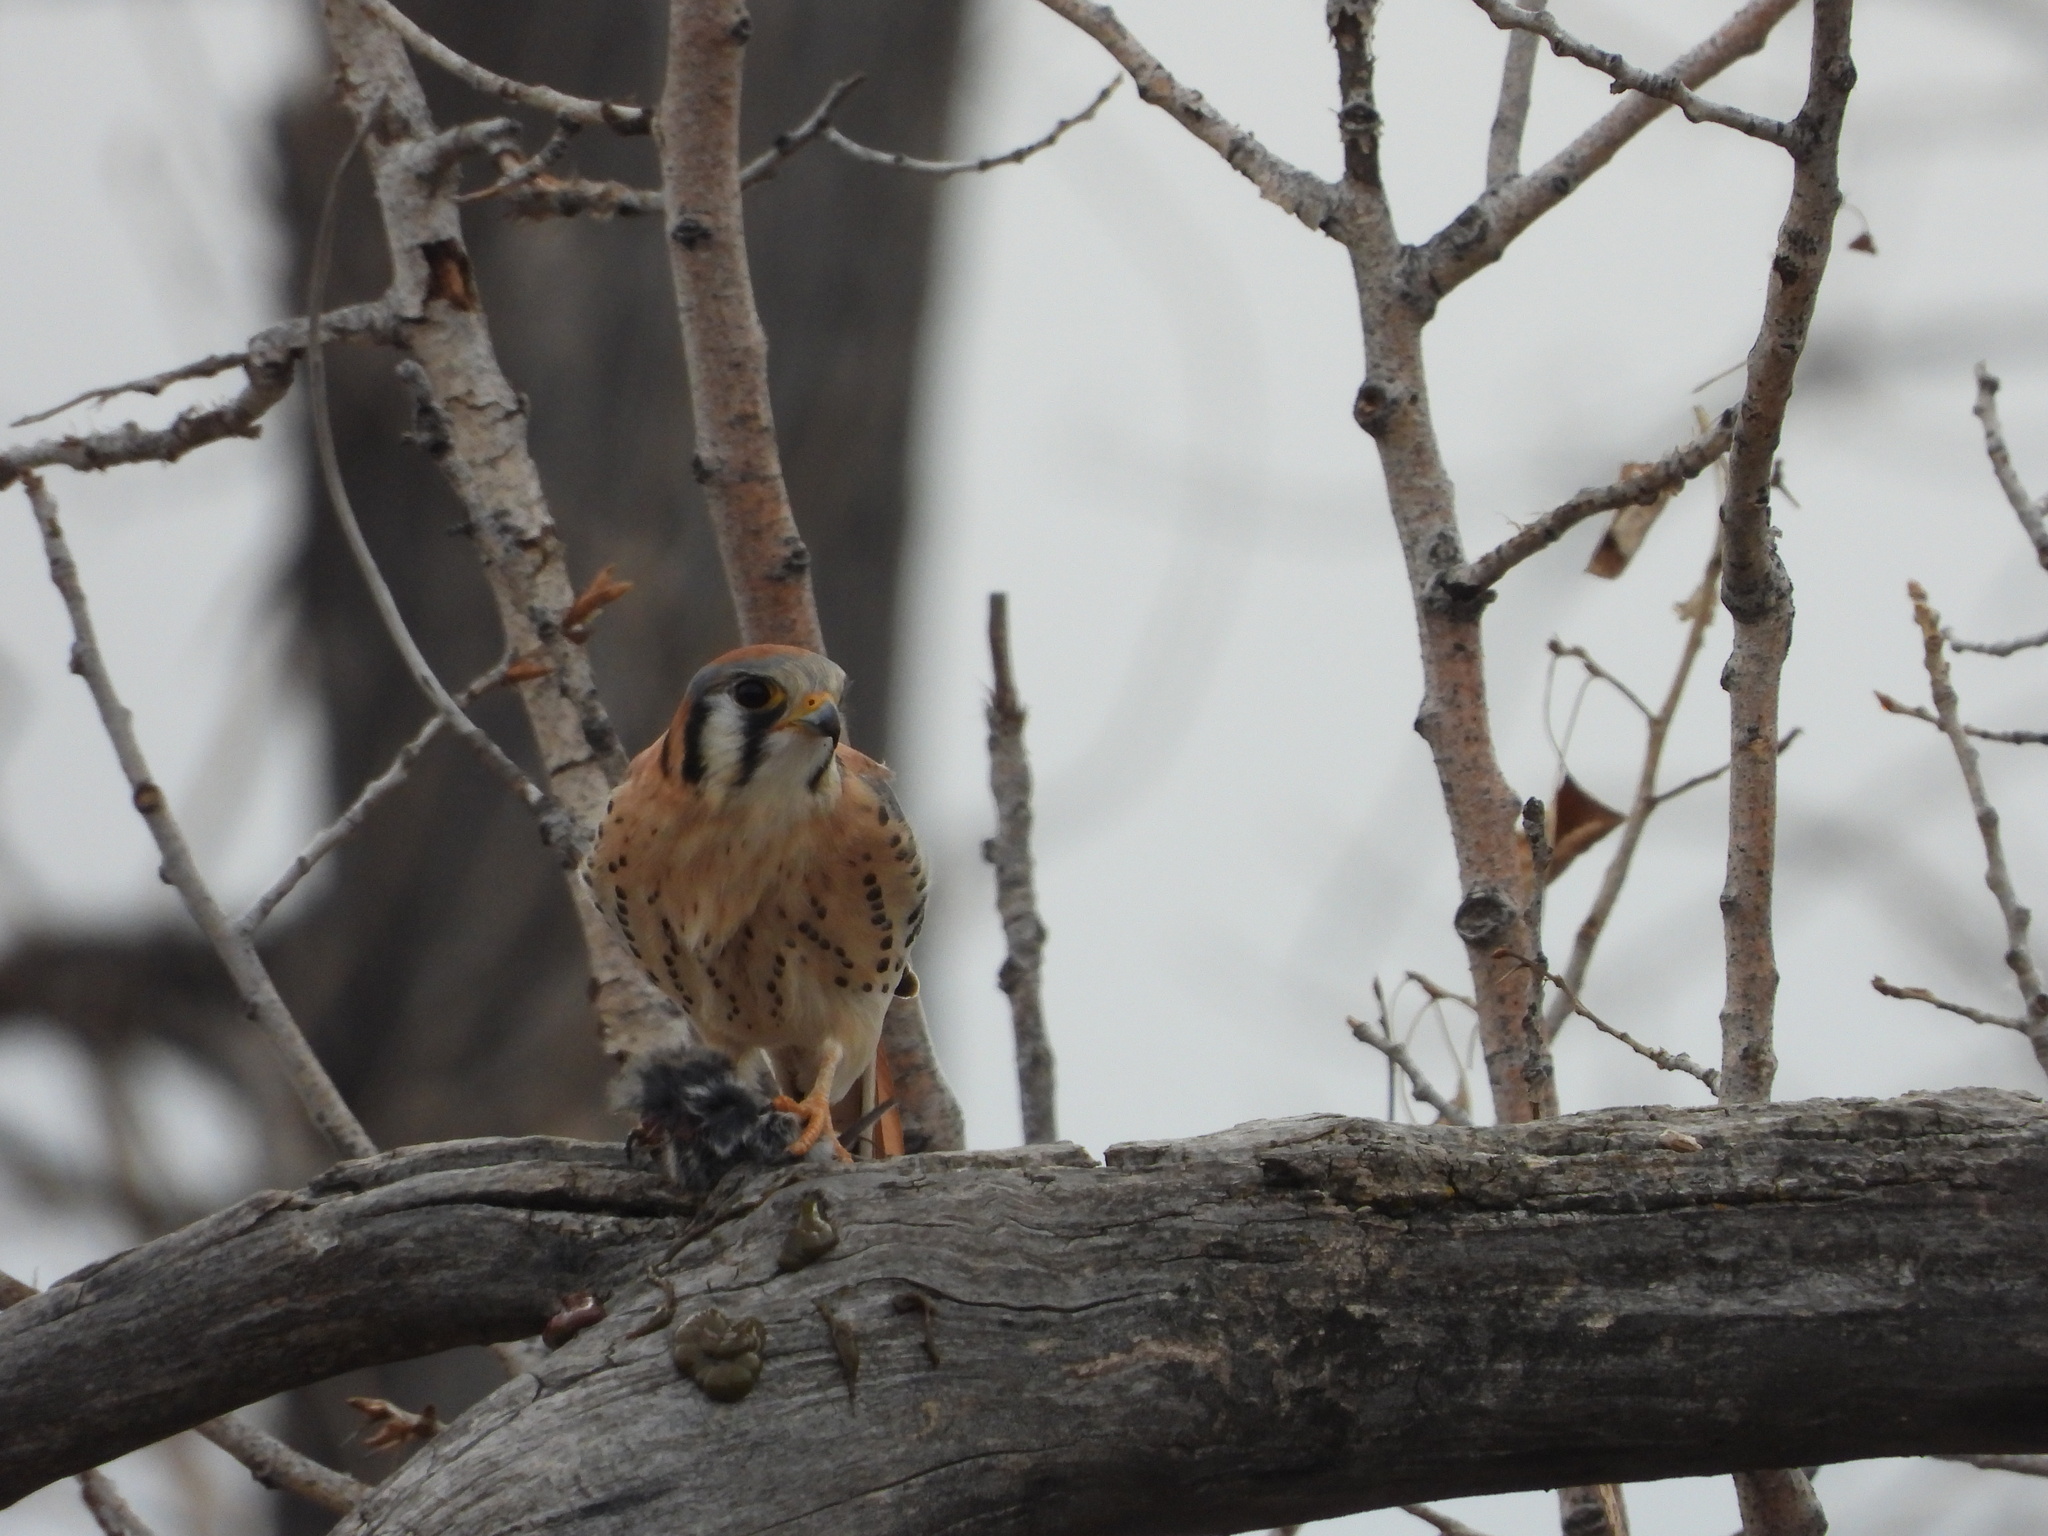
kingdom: Animalia
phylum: Chordata
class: Aves
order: Falconiformes
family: Falconidae
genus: Falco
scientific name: Falco sparverius
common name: American kestrel
